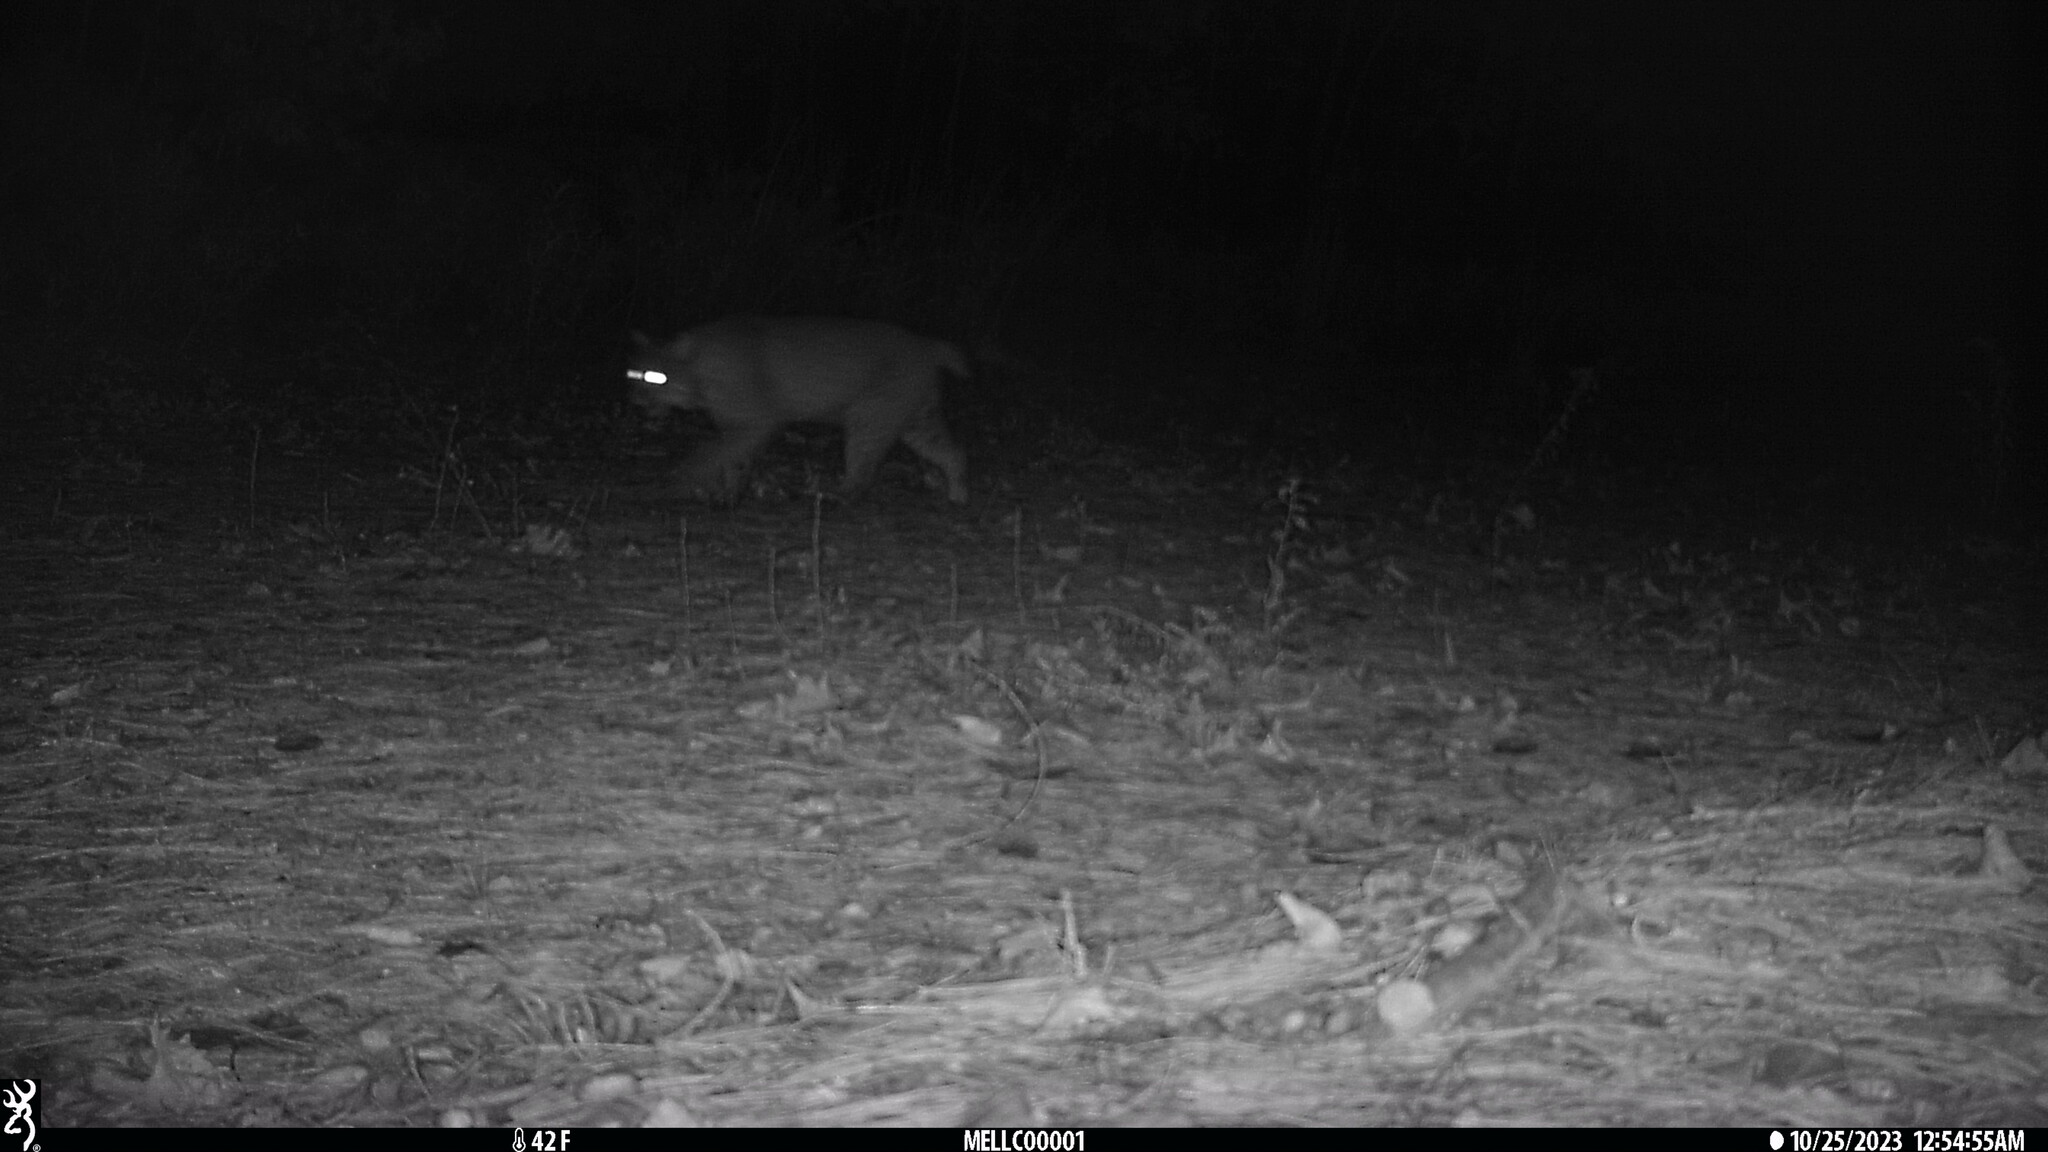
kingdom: Animalia
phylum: Chordata
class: Mammalia
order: Carnivora
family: Felidae
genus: Lynx
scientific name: Lynx rufus
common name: Bobcat
